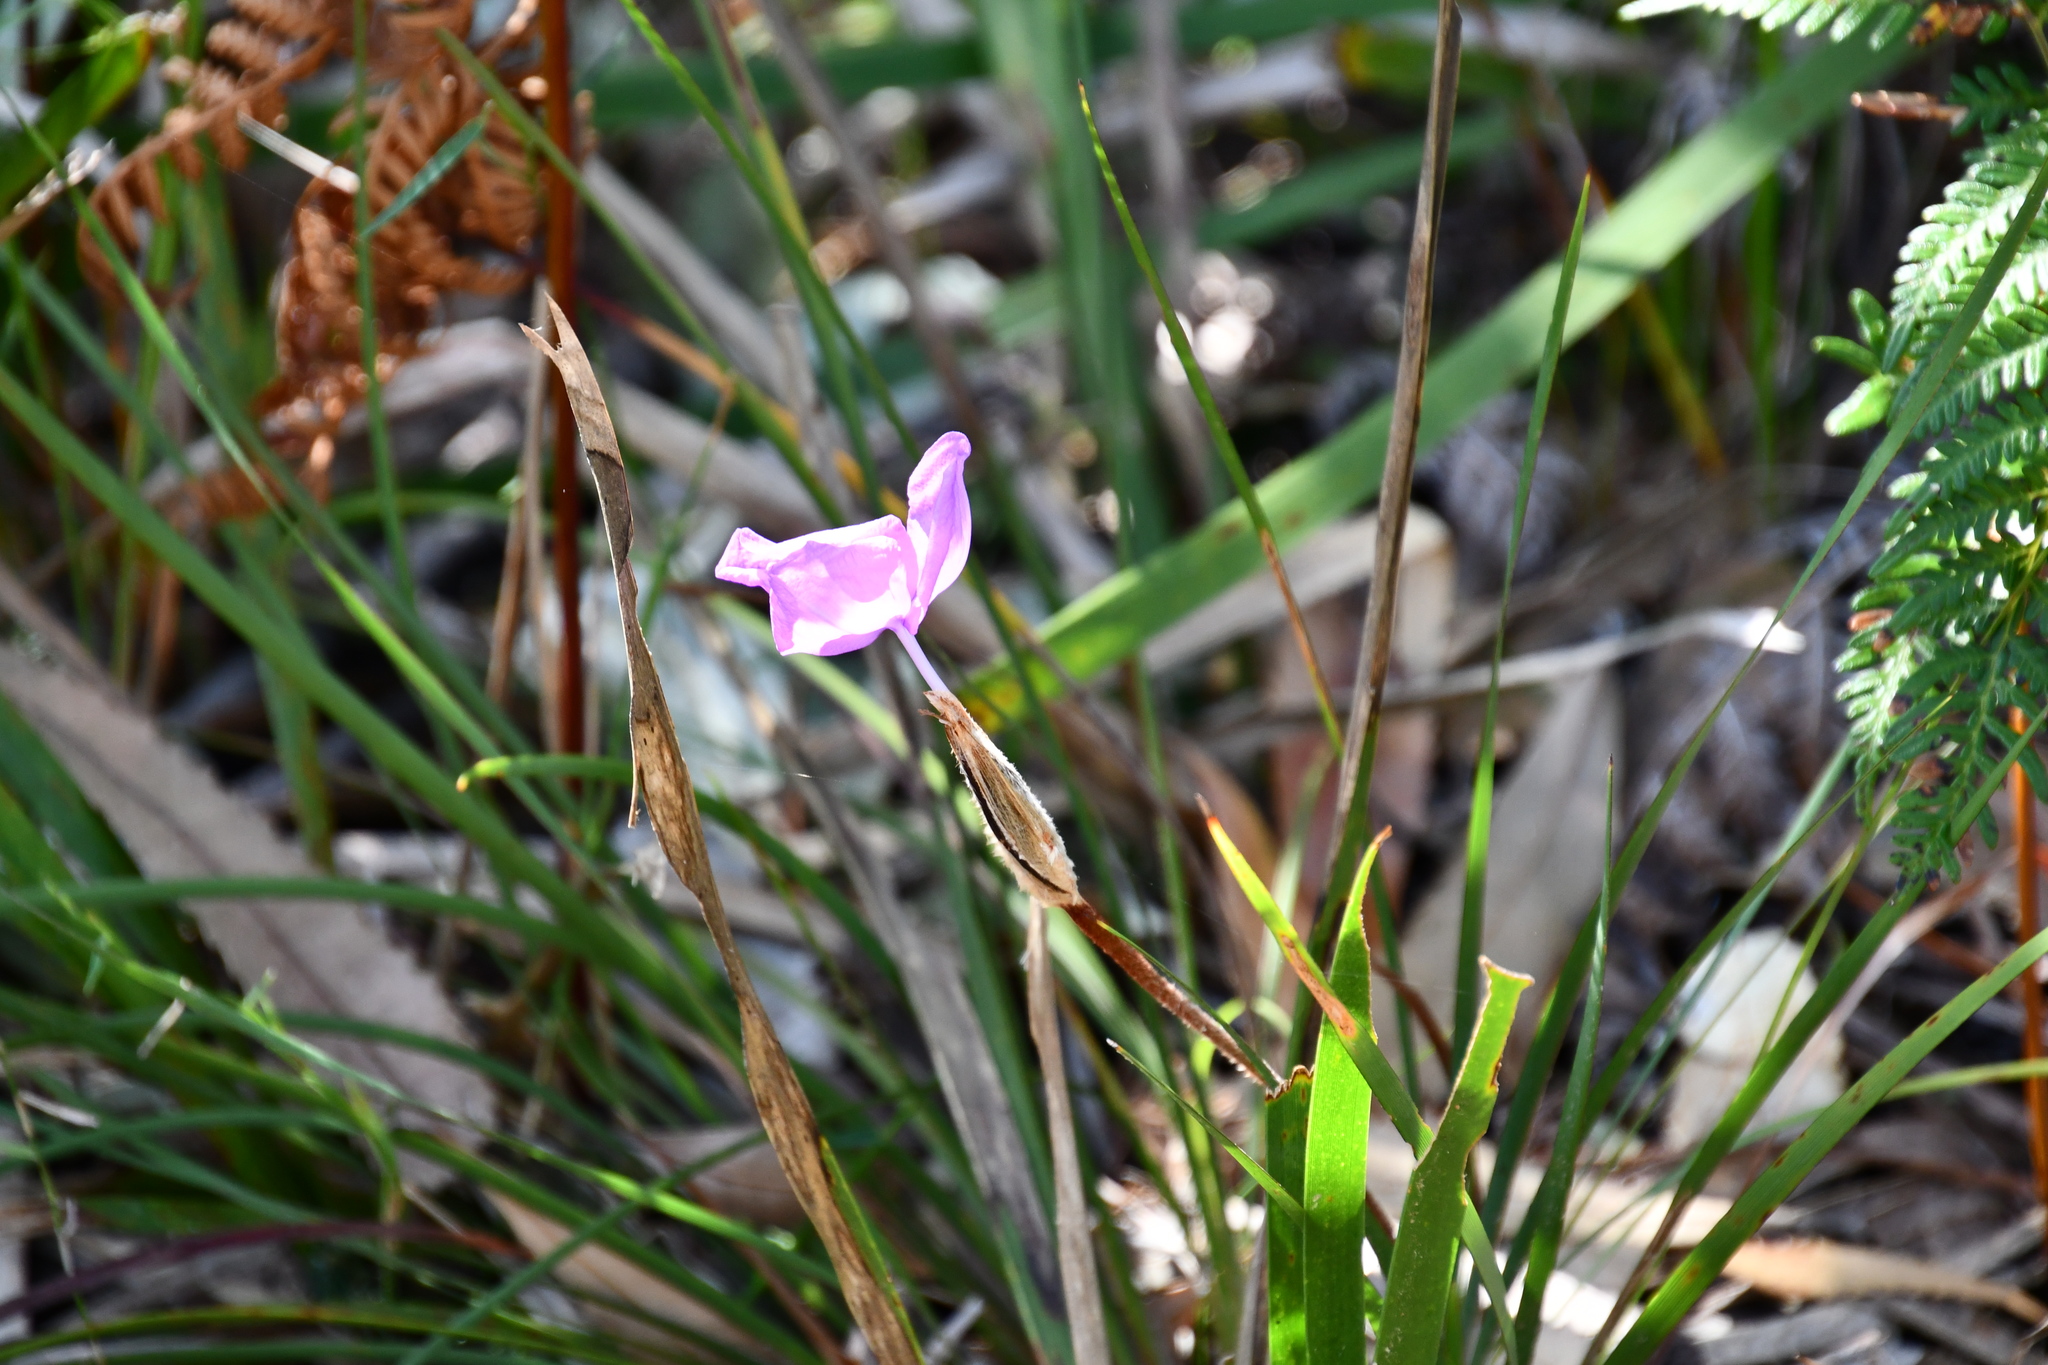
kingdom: Plantae
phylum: Tracheophyta
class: Liliopsida
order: Asparagales
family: Iridaceae
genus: Patersonia
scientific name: Patersonia sericea
